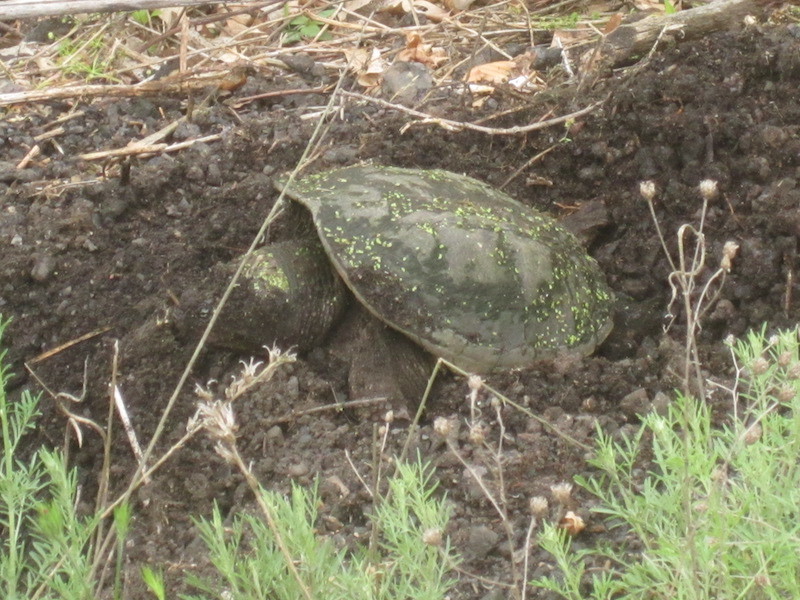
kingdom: Animalia
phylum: Chordata
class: Testudines
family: Chelydridae
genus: Chelydra
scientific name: Chelydra serpentina
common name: Common snapping turtle
